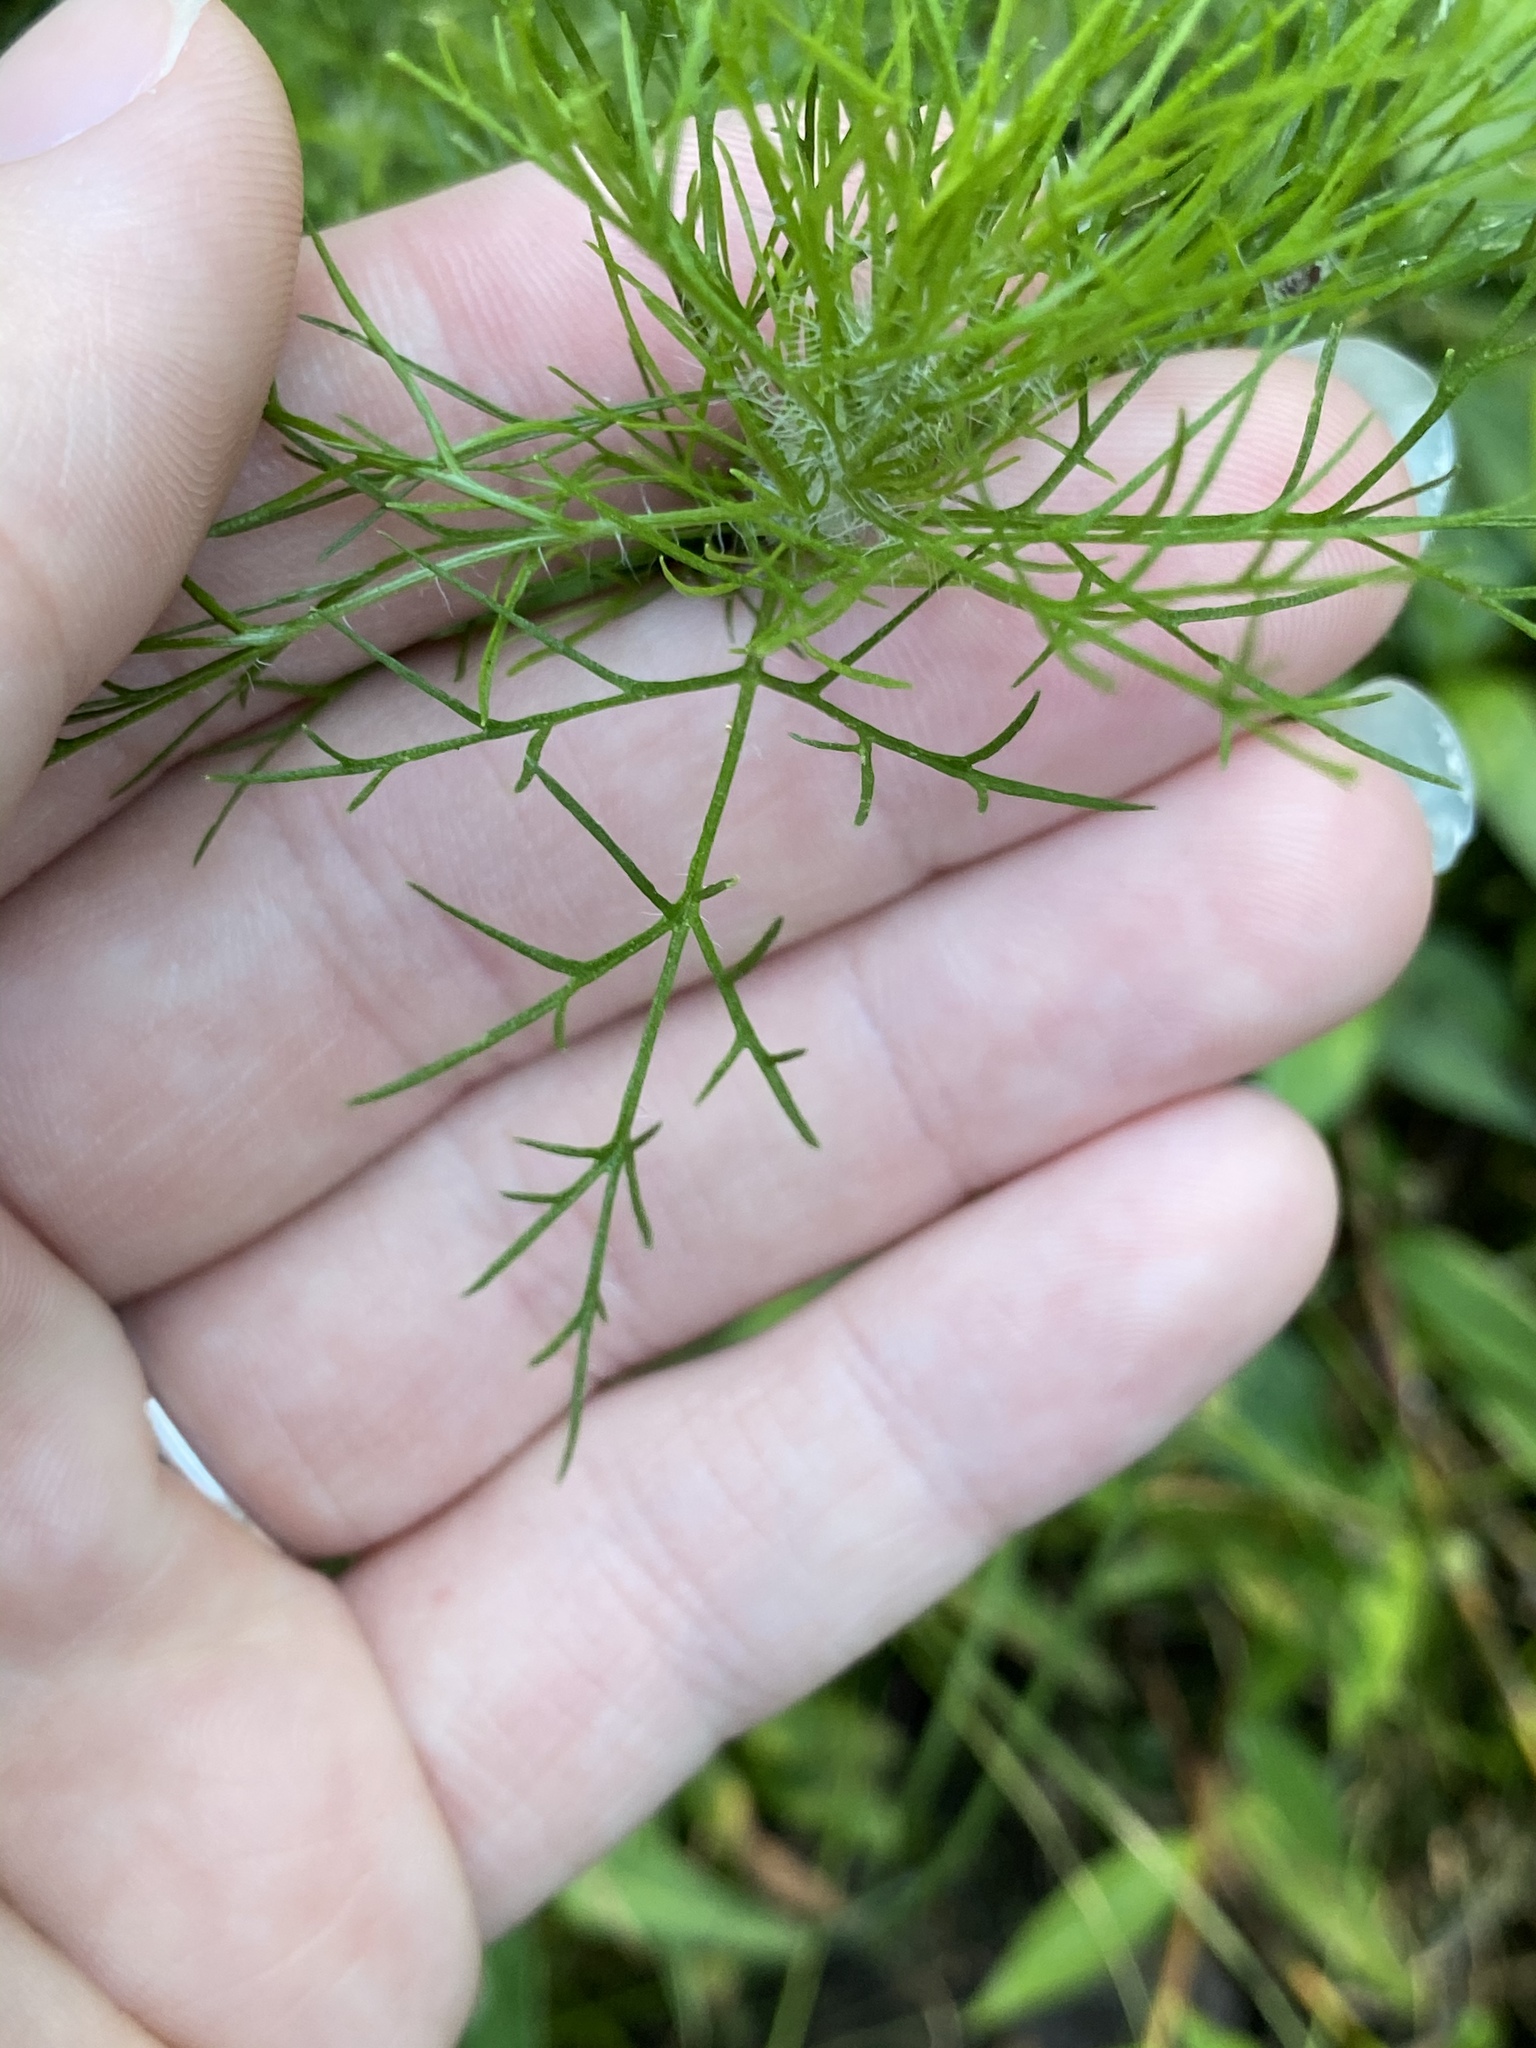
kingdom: Plantae
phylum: Tracheophyta
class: Magnoliopsida
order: Asterales
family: Asteraceae
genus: Eupatorium
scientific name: Eupatorium capillifolium
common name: Dog-fennel
